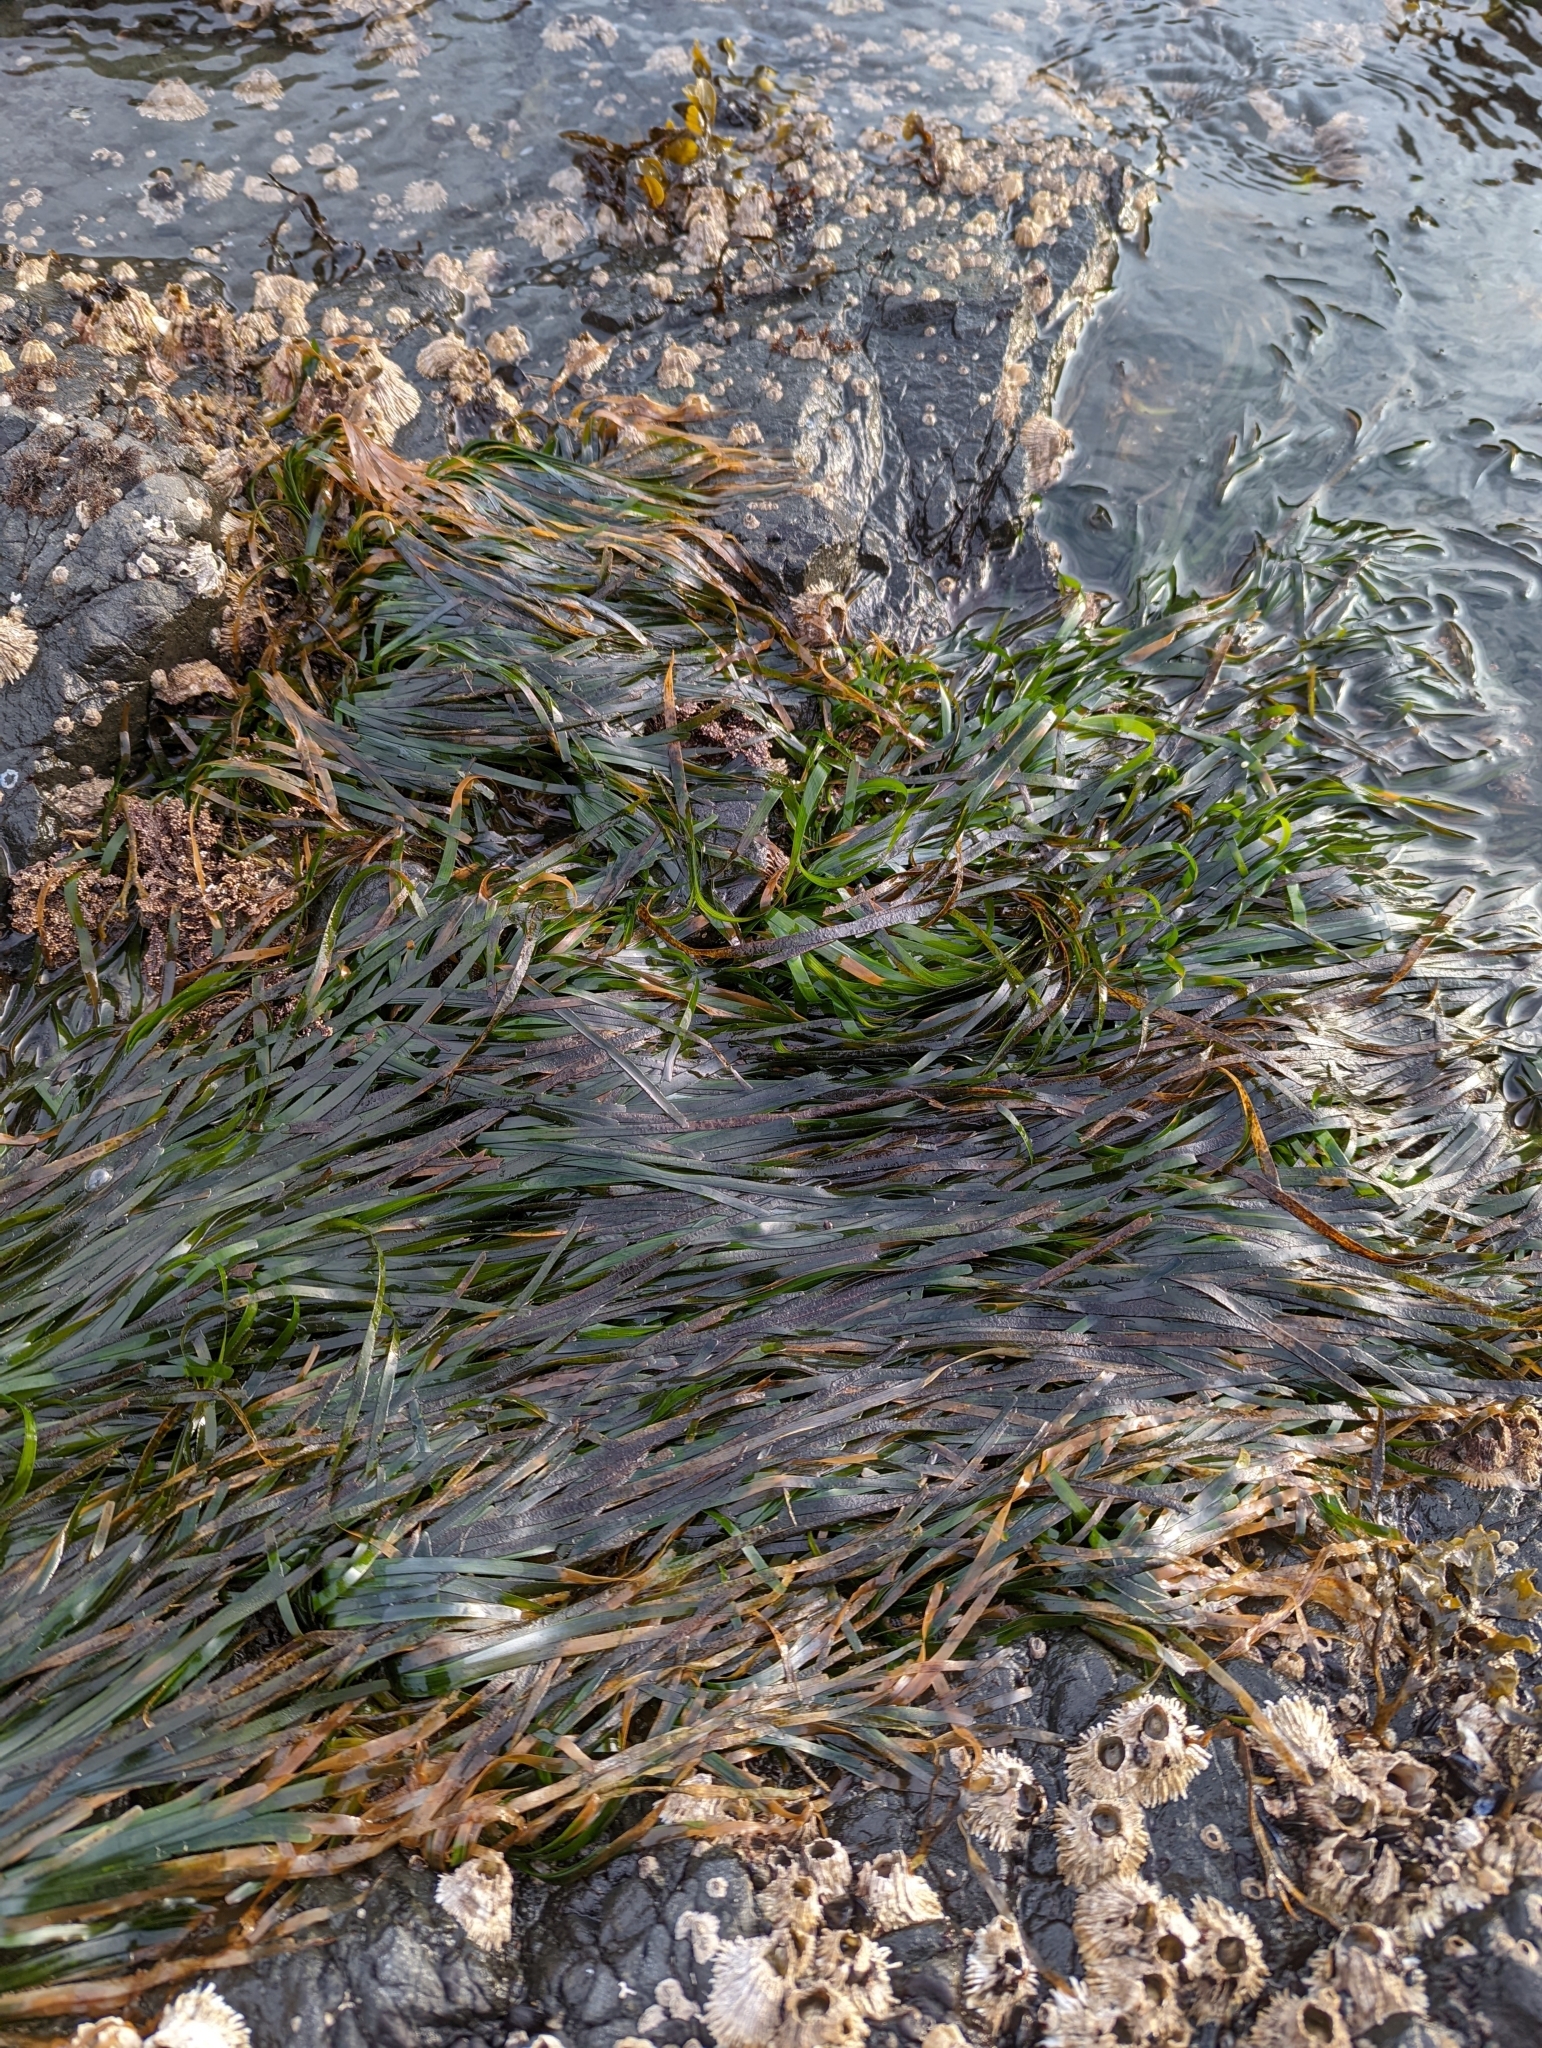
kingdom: Plantae
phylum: Tracheophyta
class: Liliopsida
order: Alismatales
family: Zosteraceae
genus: Phyllospadix
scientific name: Phyllospadix scouleri
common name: Species code: ps
